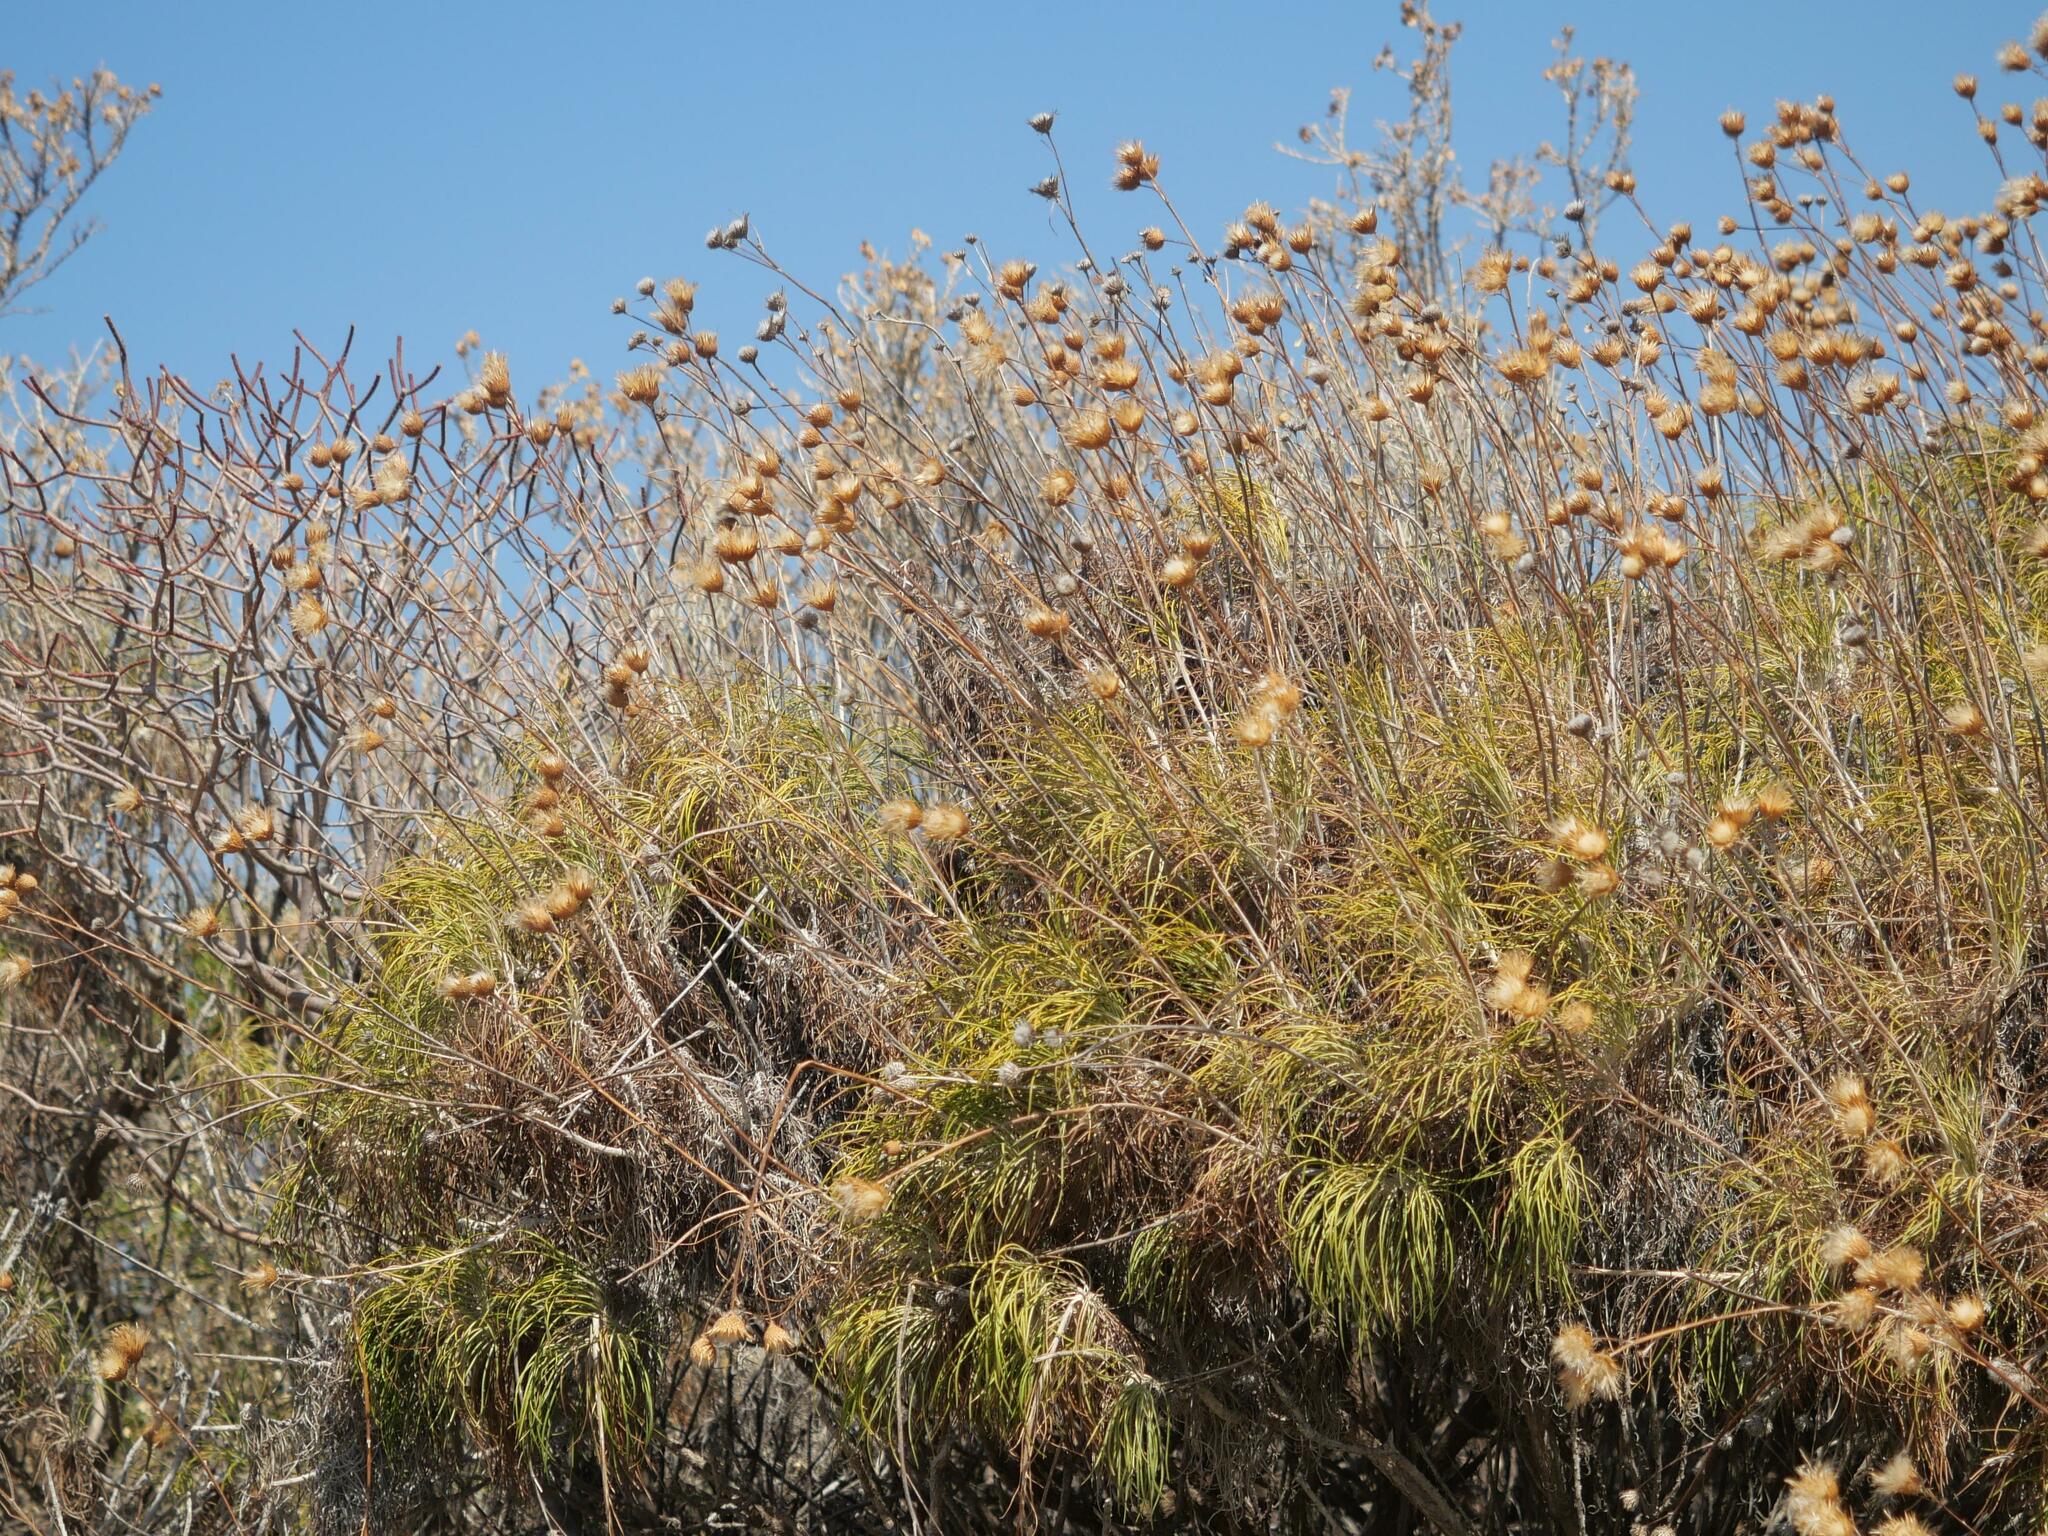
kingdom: Plantae
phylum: Tracheophyta
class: Magnoliopsida
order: Asterales
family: Asteraceae
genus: Ptilostemon
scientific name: Ptilostemon chamaepeuce
